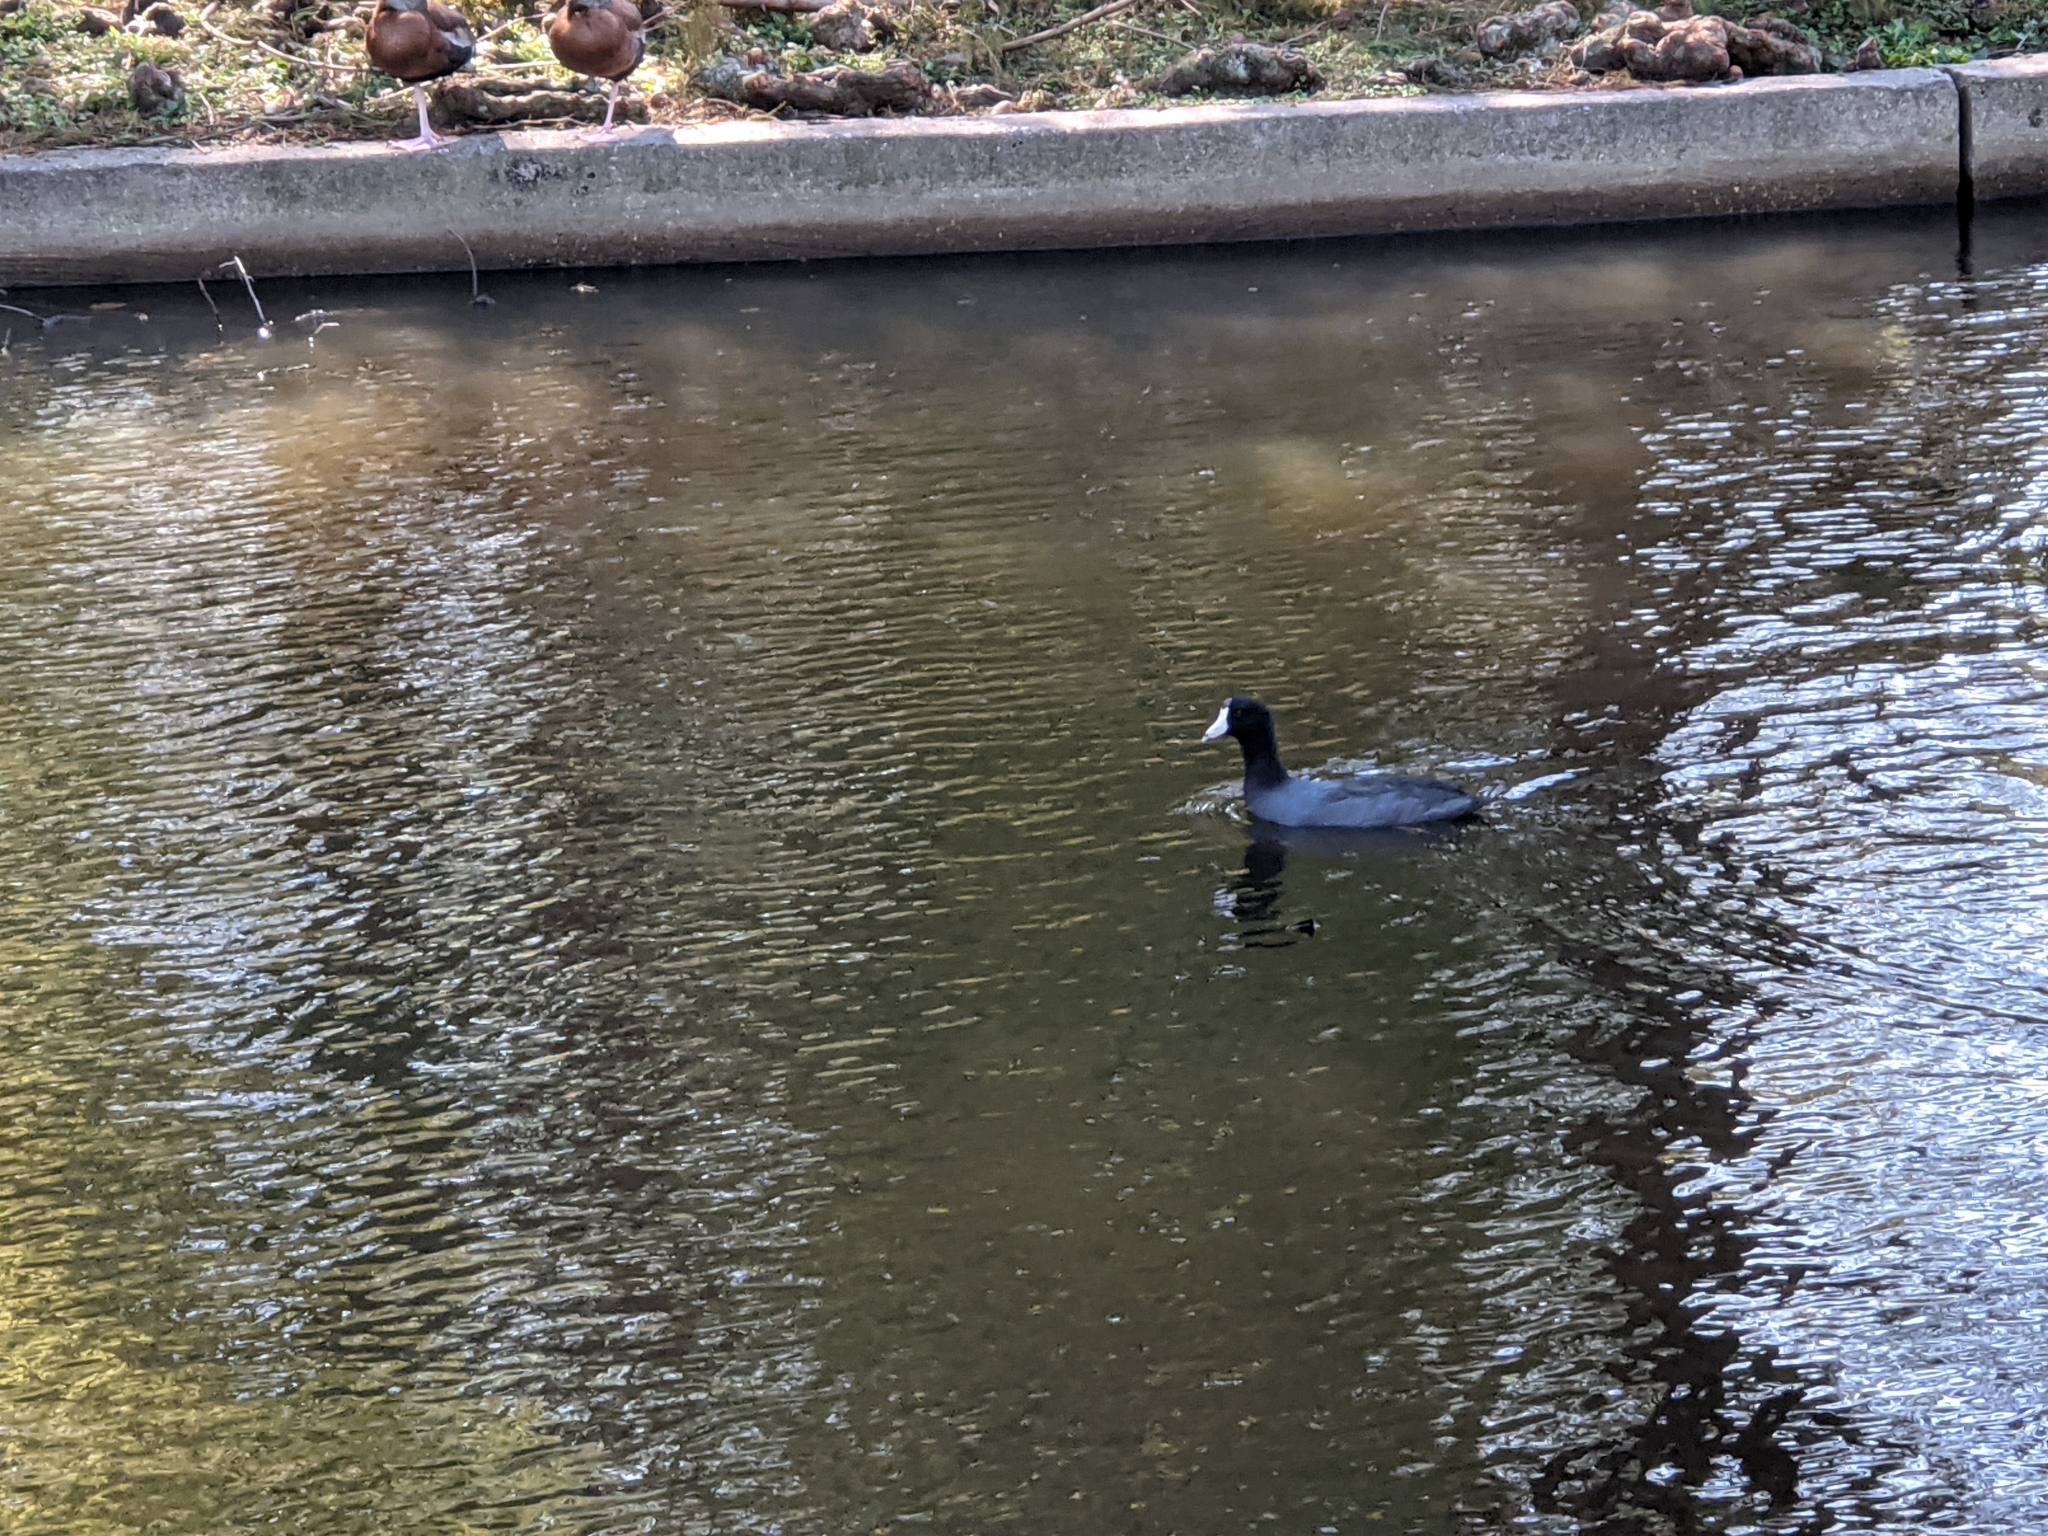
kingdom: Animalia
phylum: Chordata
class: Aves
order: Gruiformes
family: Rallidae
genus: Fulica
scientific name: Fulica americana
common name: American coot
